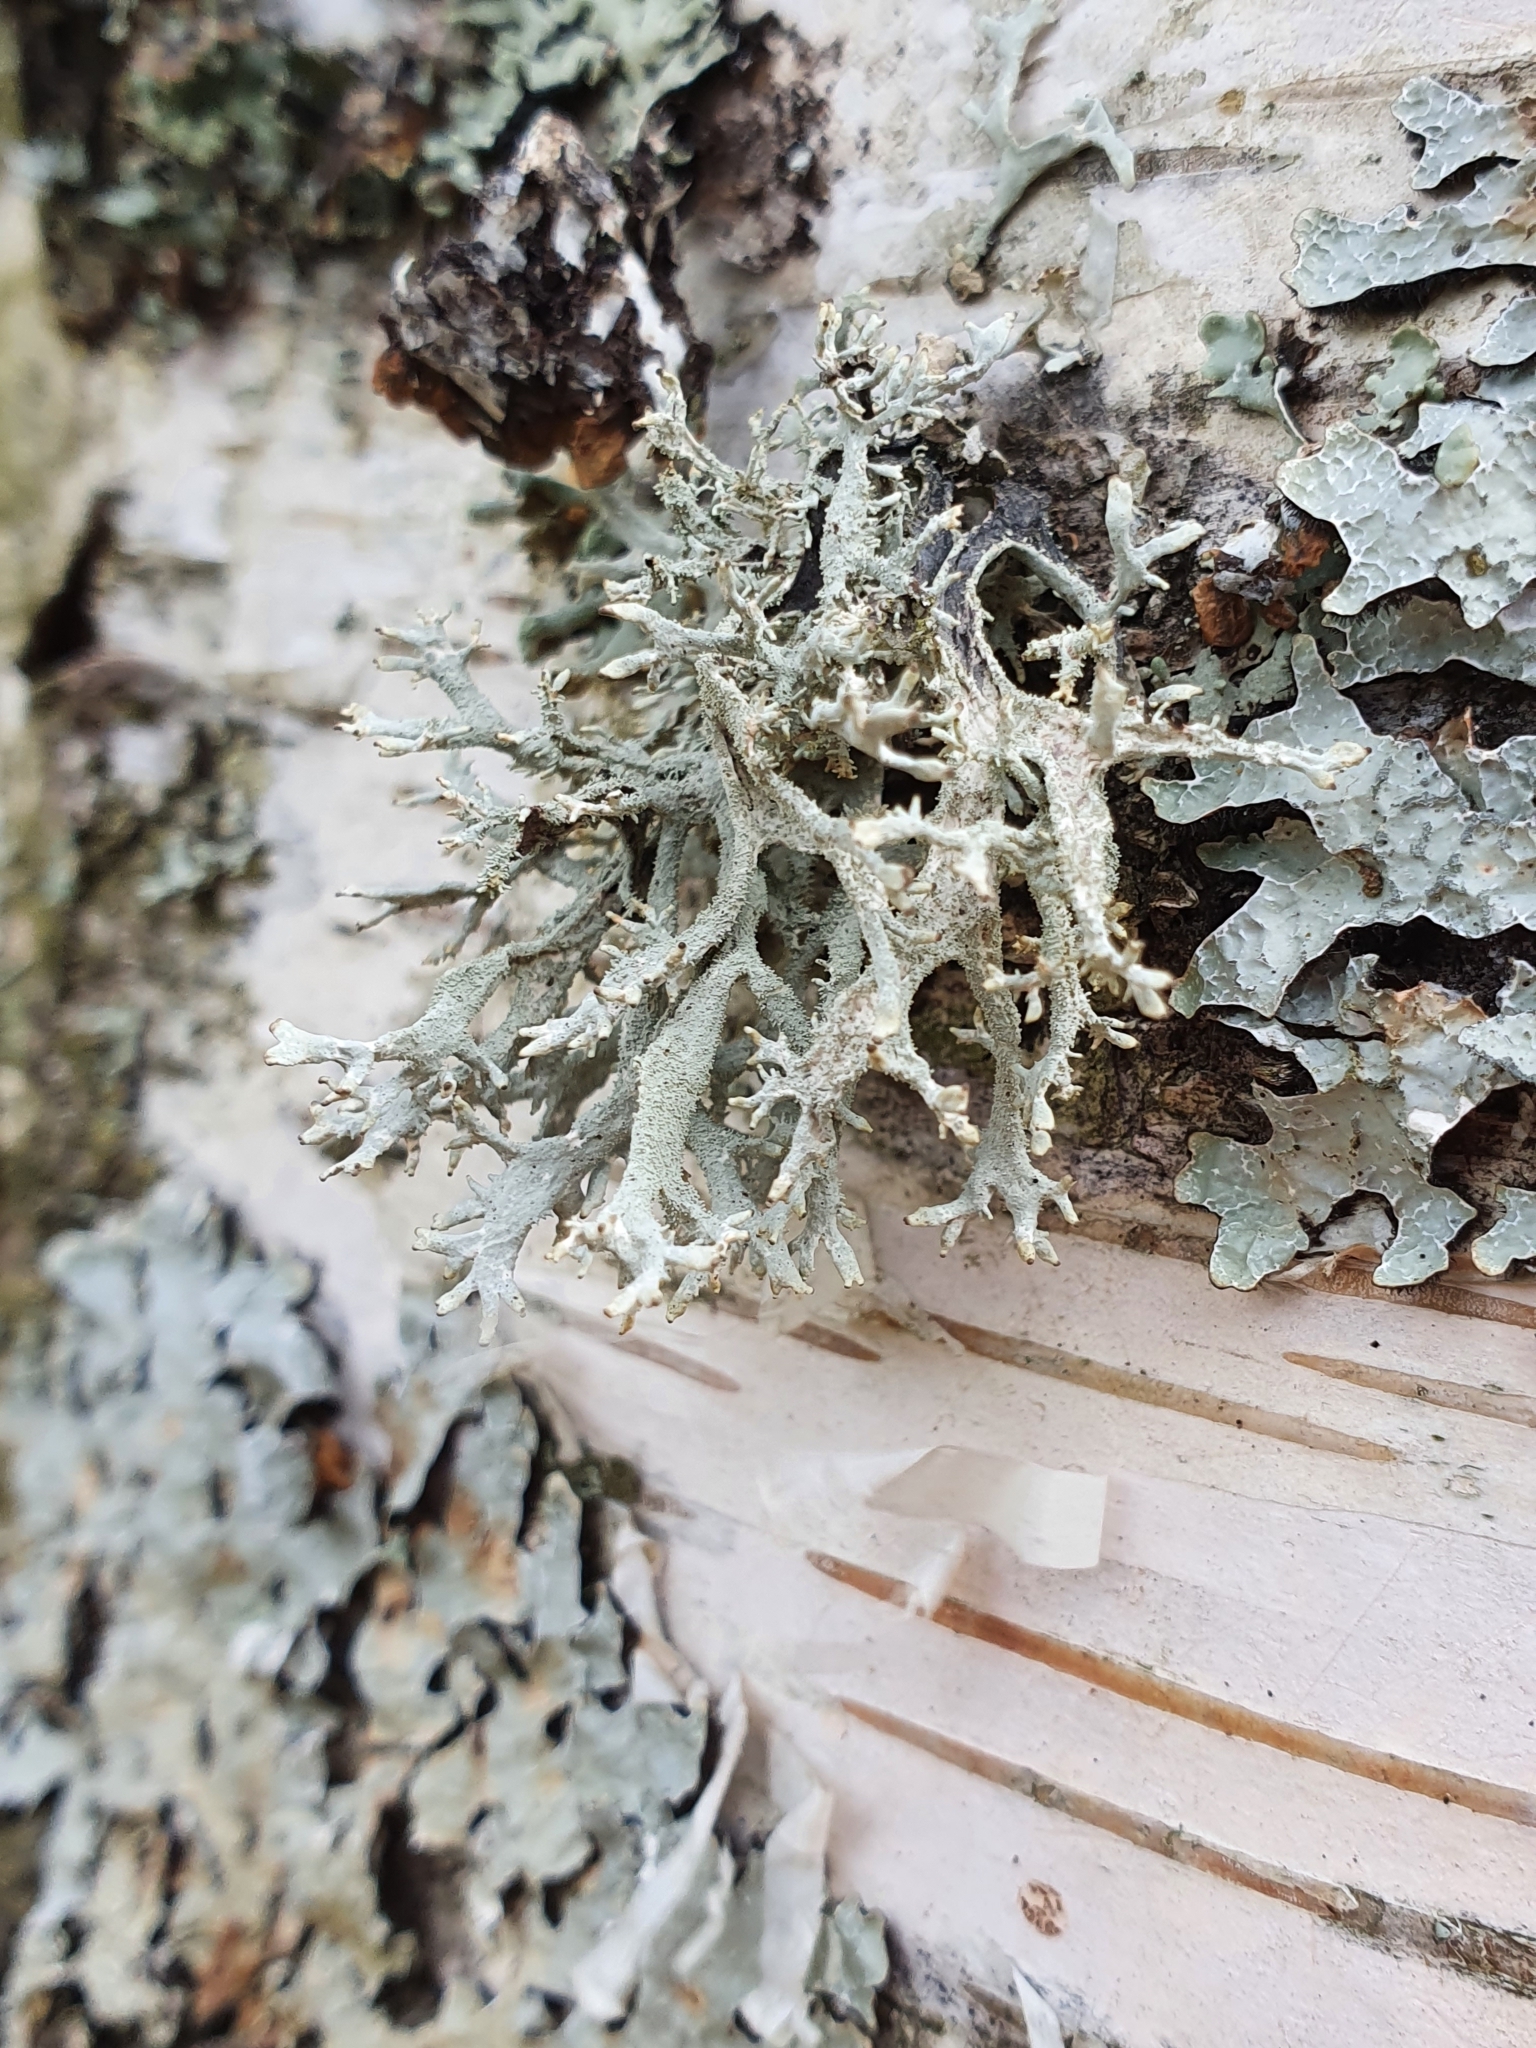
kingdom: Fungi
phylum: Ascomycota
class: Lecanoromycetes
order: Lecanorales
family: Parmeliaceae
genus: Pseudevernia
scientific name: Pseudevernia furfuracea
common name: Tree moss
